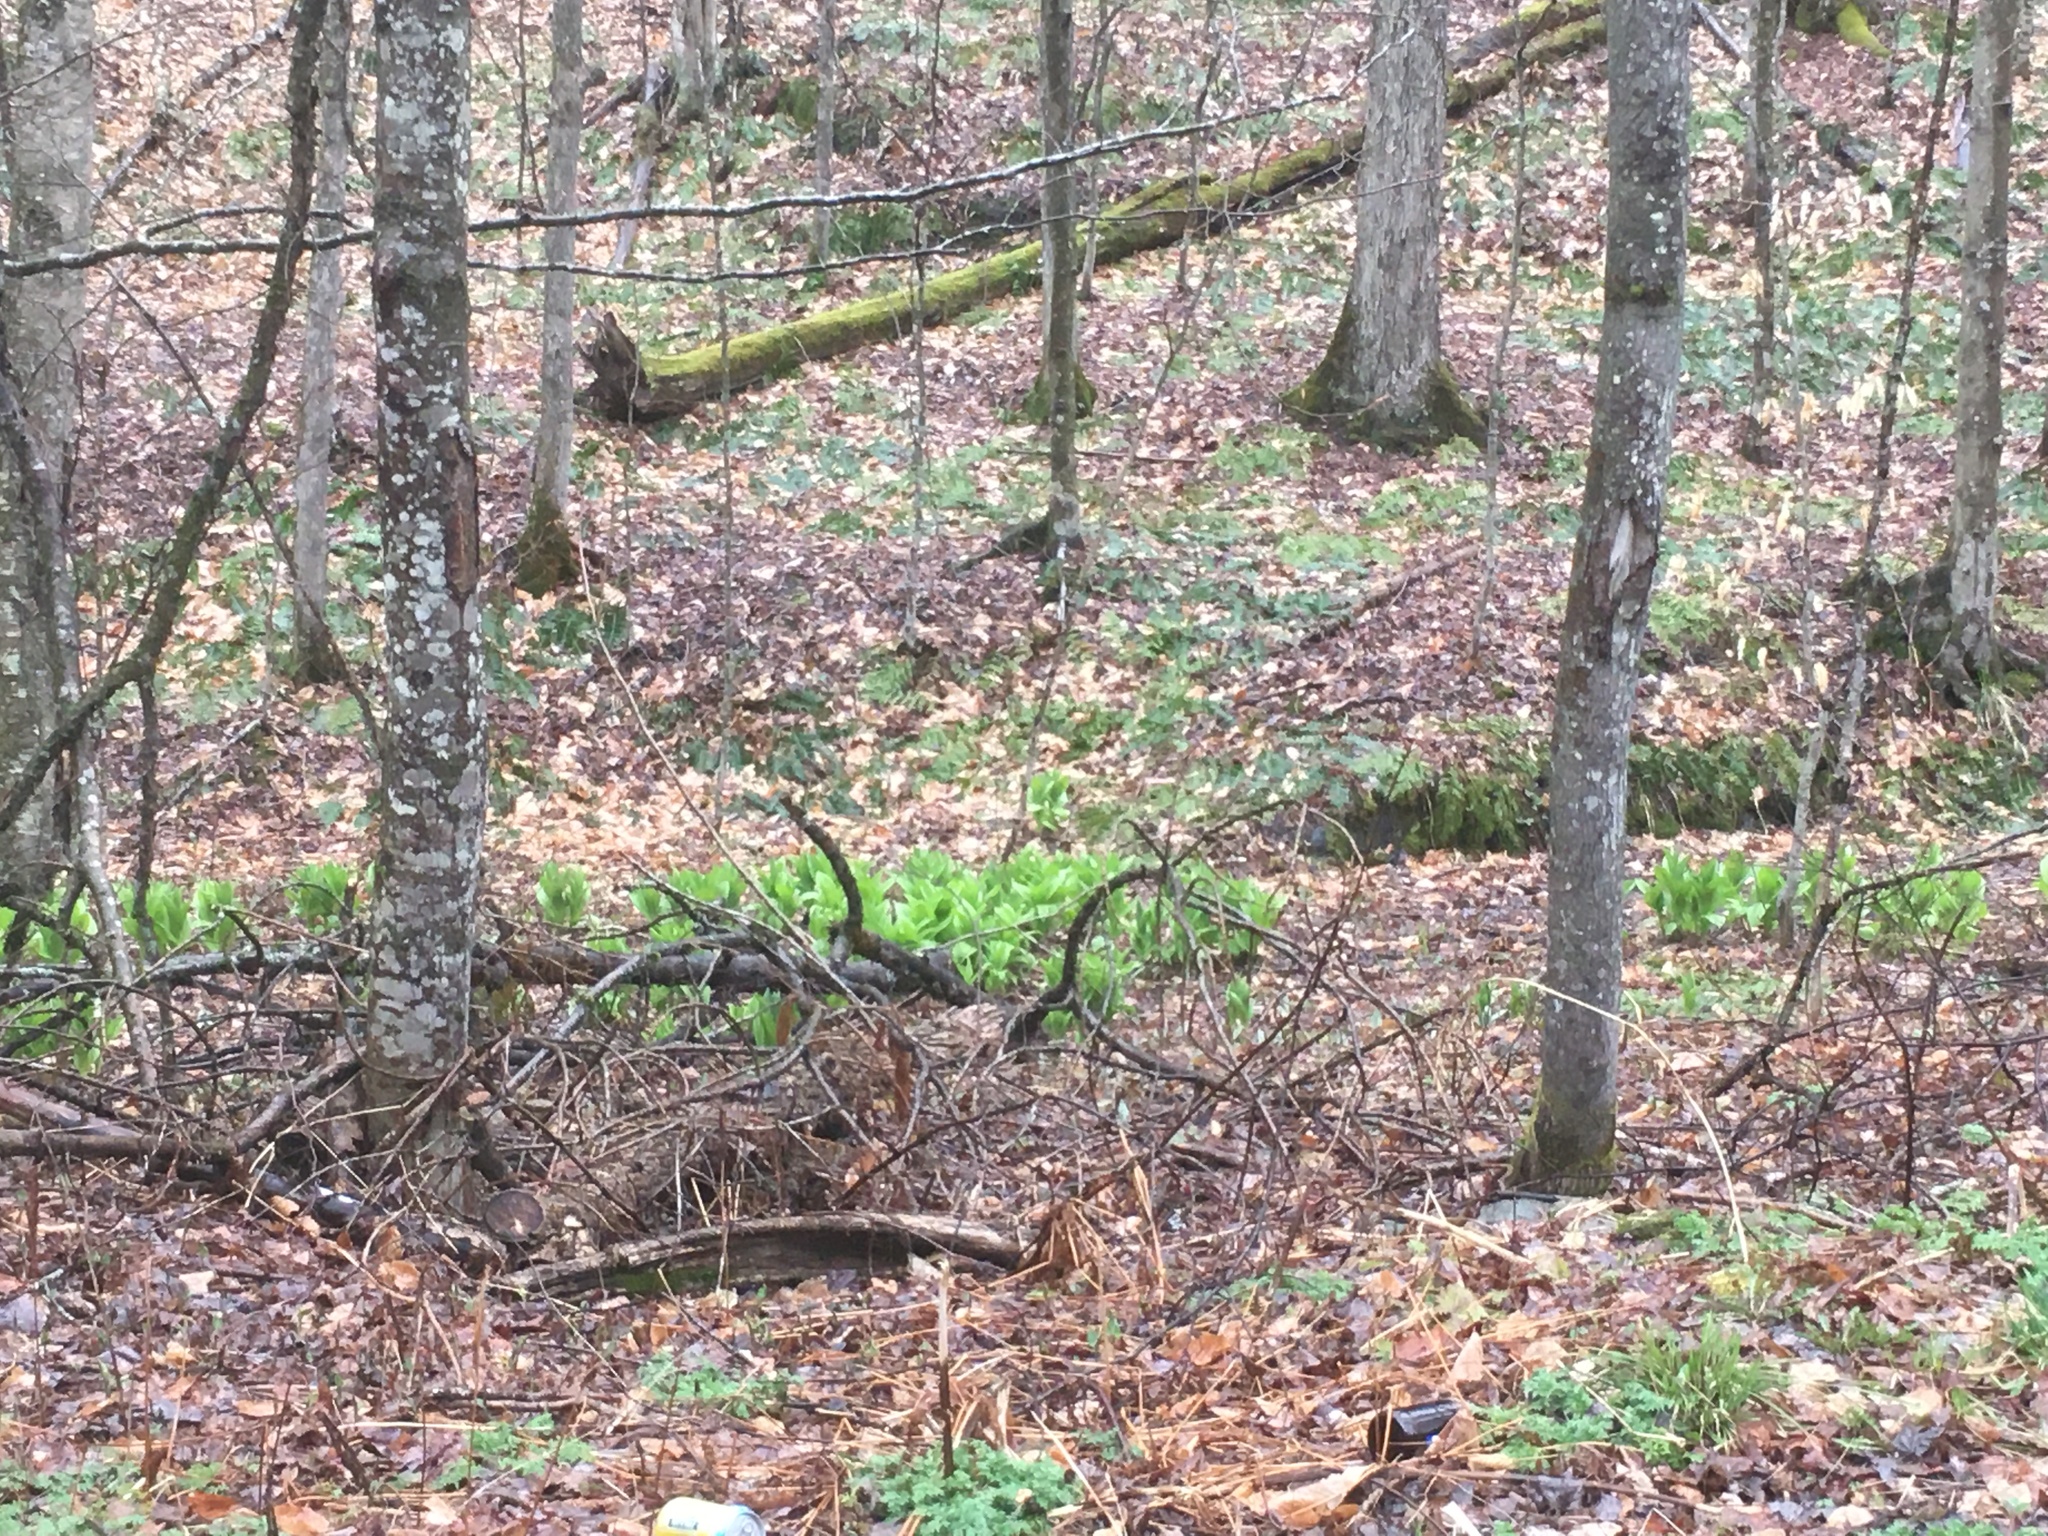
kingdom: Plantae
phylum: Tracheophyta
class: Liliopsida
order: Liliales
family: Melanthiaceae
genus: Veratrum
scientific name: Veratrum viride
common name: American false hellebore
